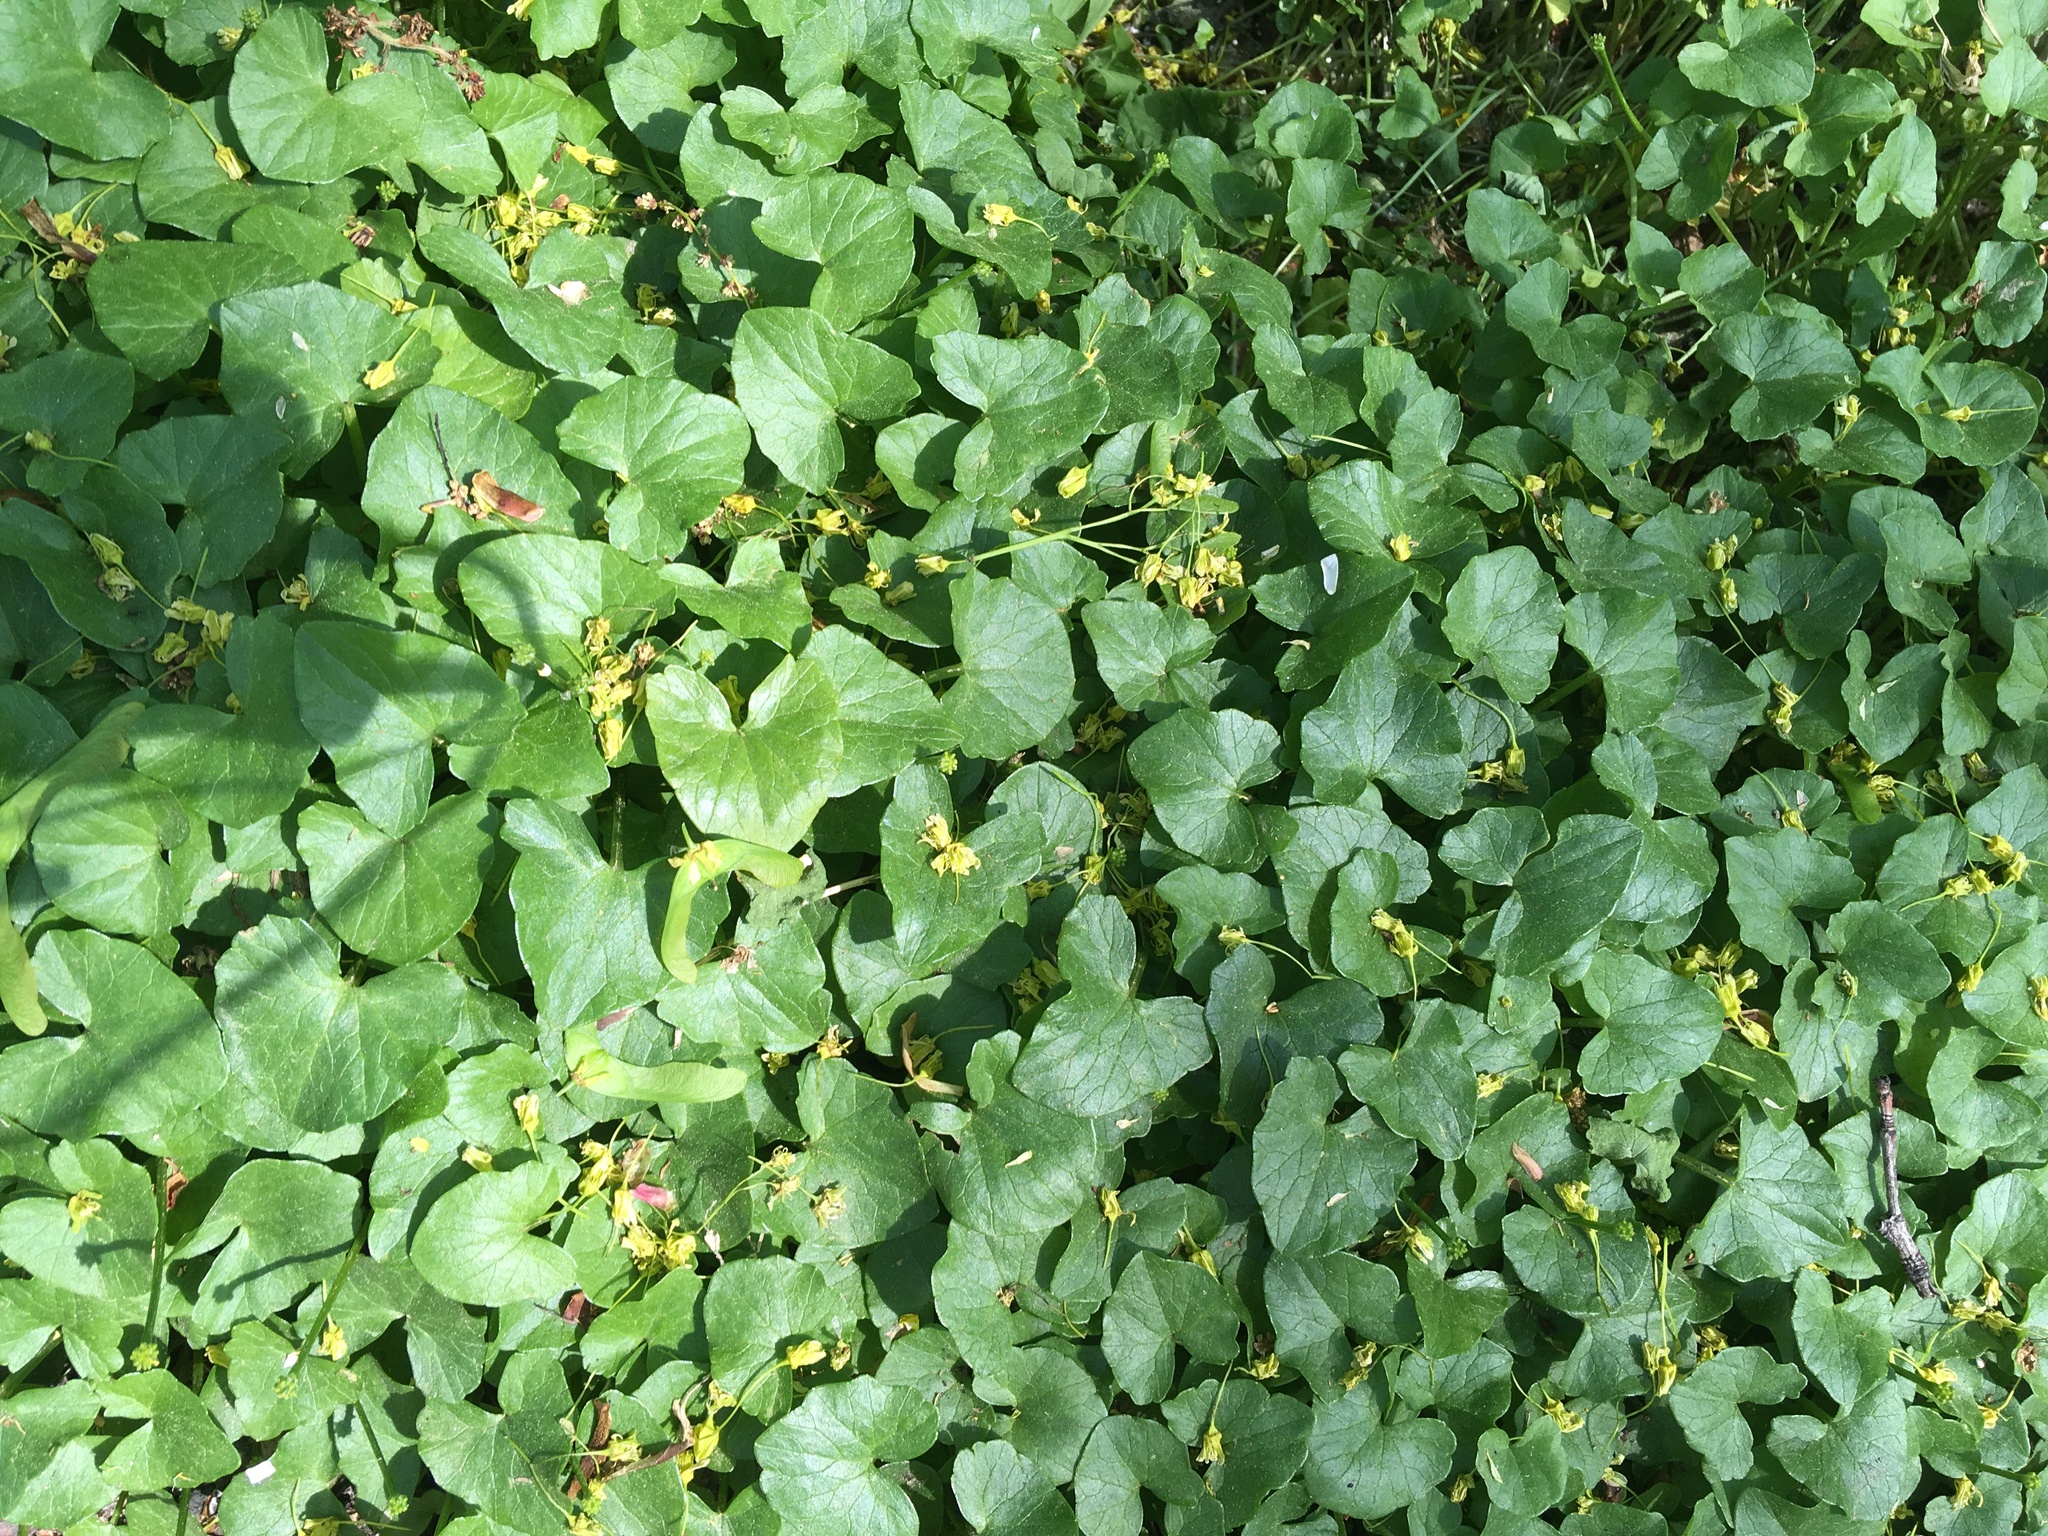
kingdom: Plantae
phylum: Tracheophyta
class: Magnoliopsida
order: Ranunculales
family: Ranunculaceae
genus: Ficaria
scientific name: Ficaria verna
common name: Lesser celandine
